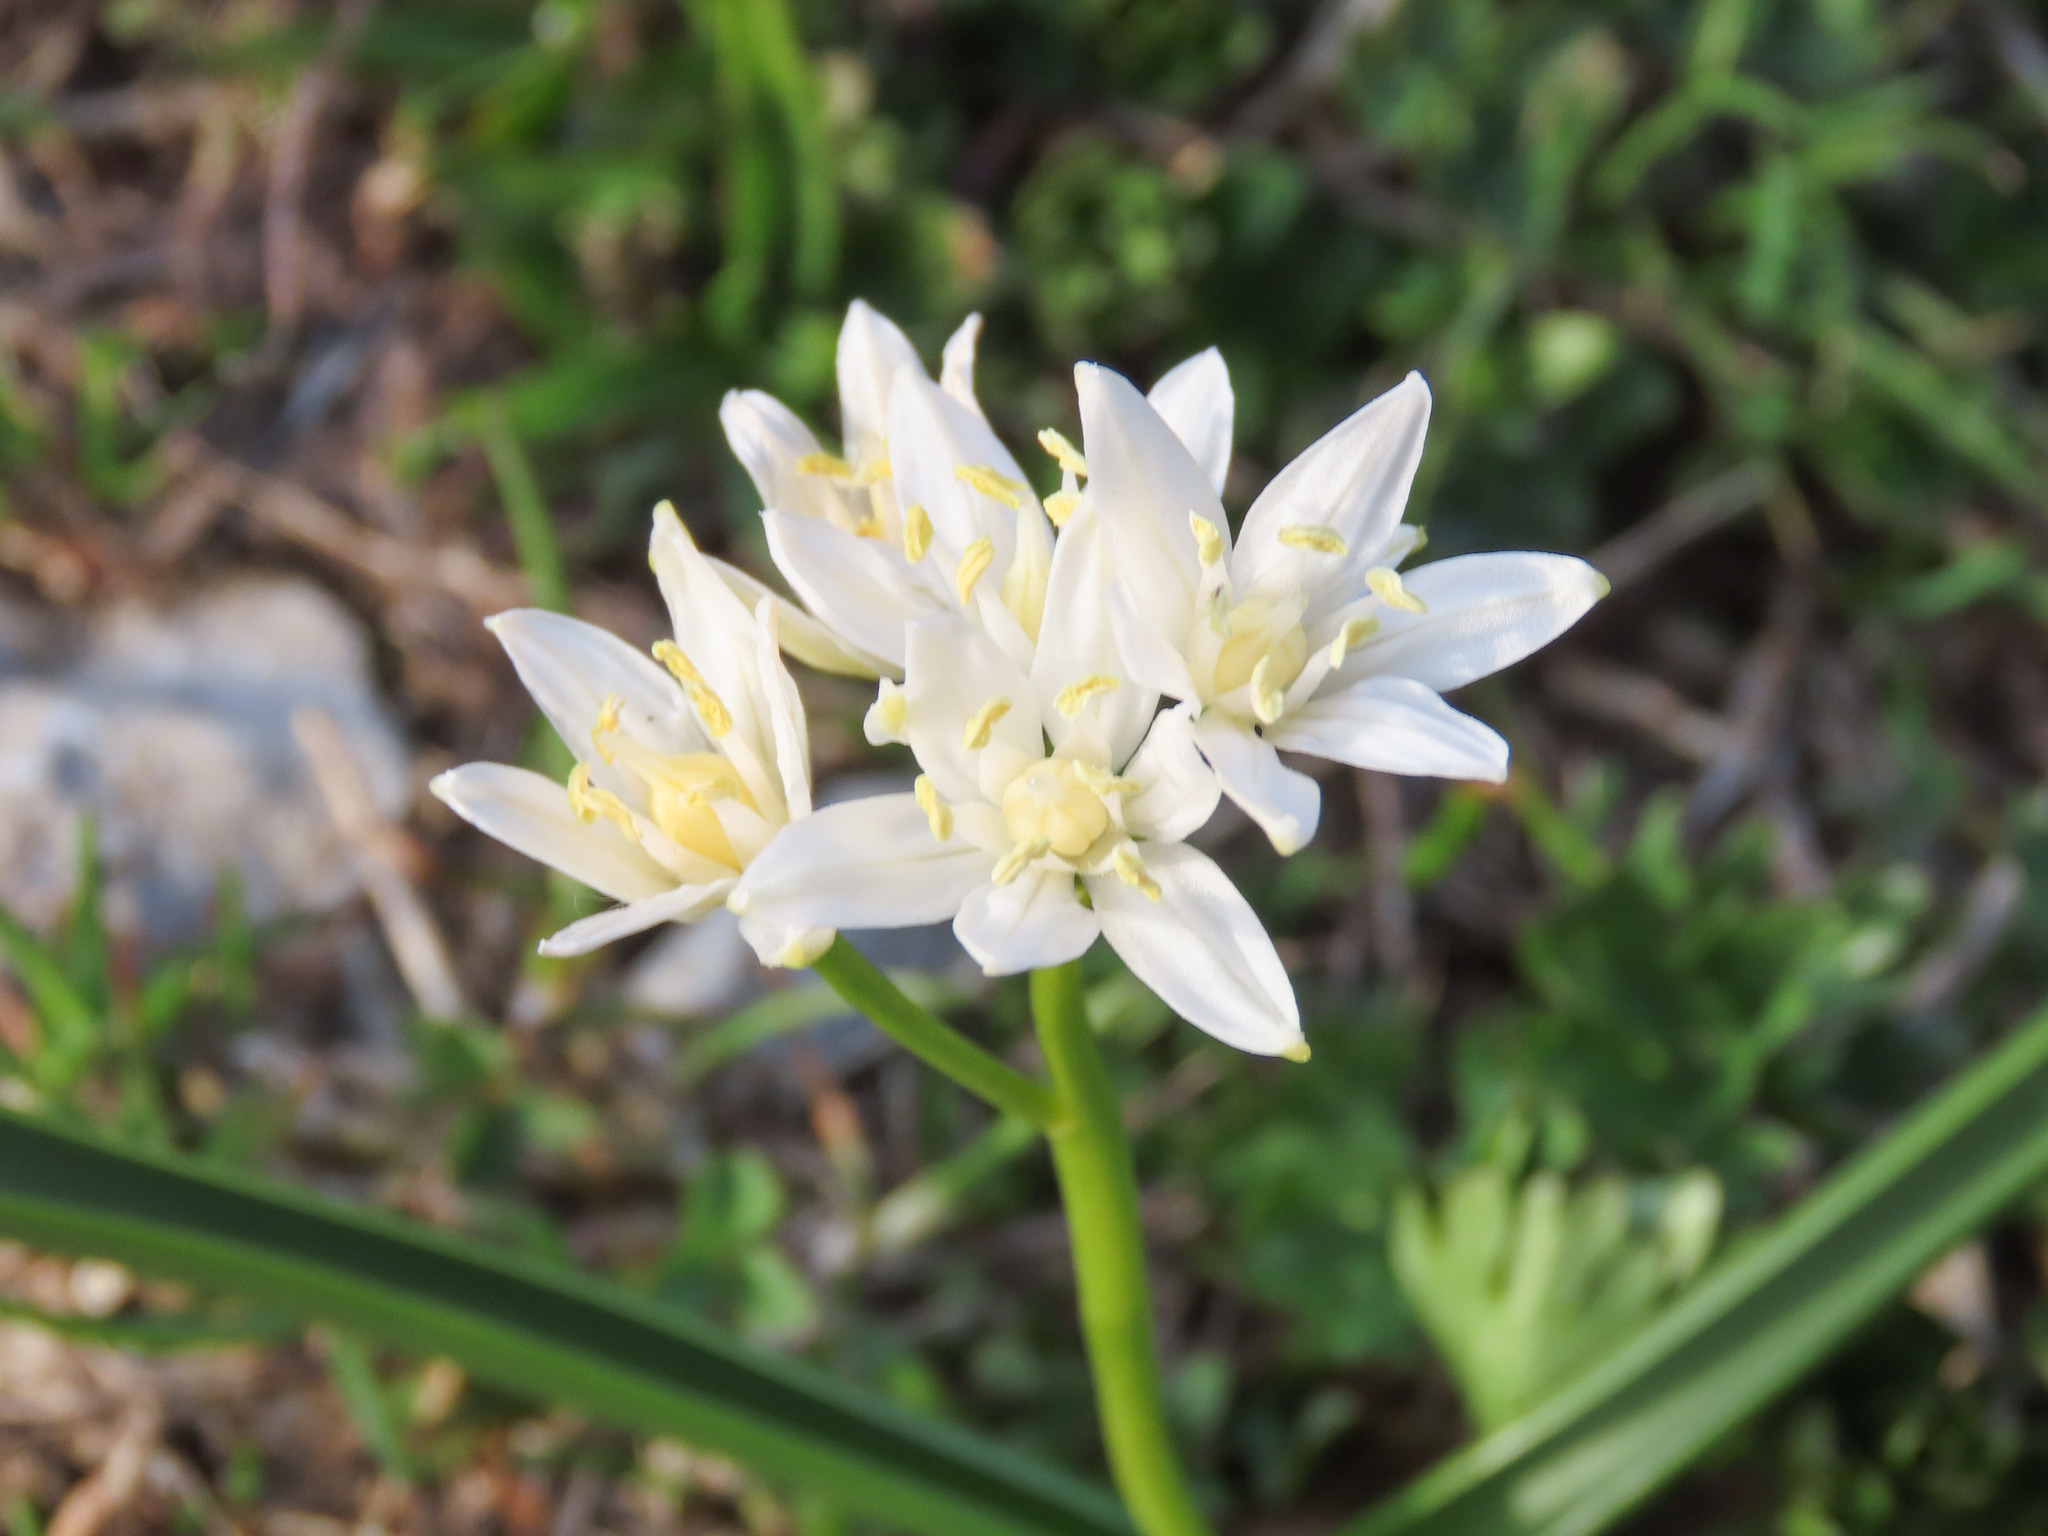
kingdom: Plantae
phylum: Tracheophyta
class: Liliopsida
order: Asparagales
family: Asparagaceae
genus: Scilla
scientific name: Scilla bifolia
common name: Alpine squill
